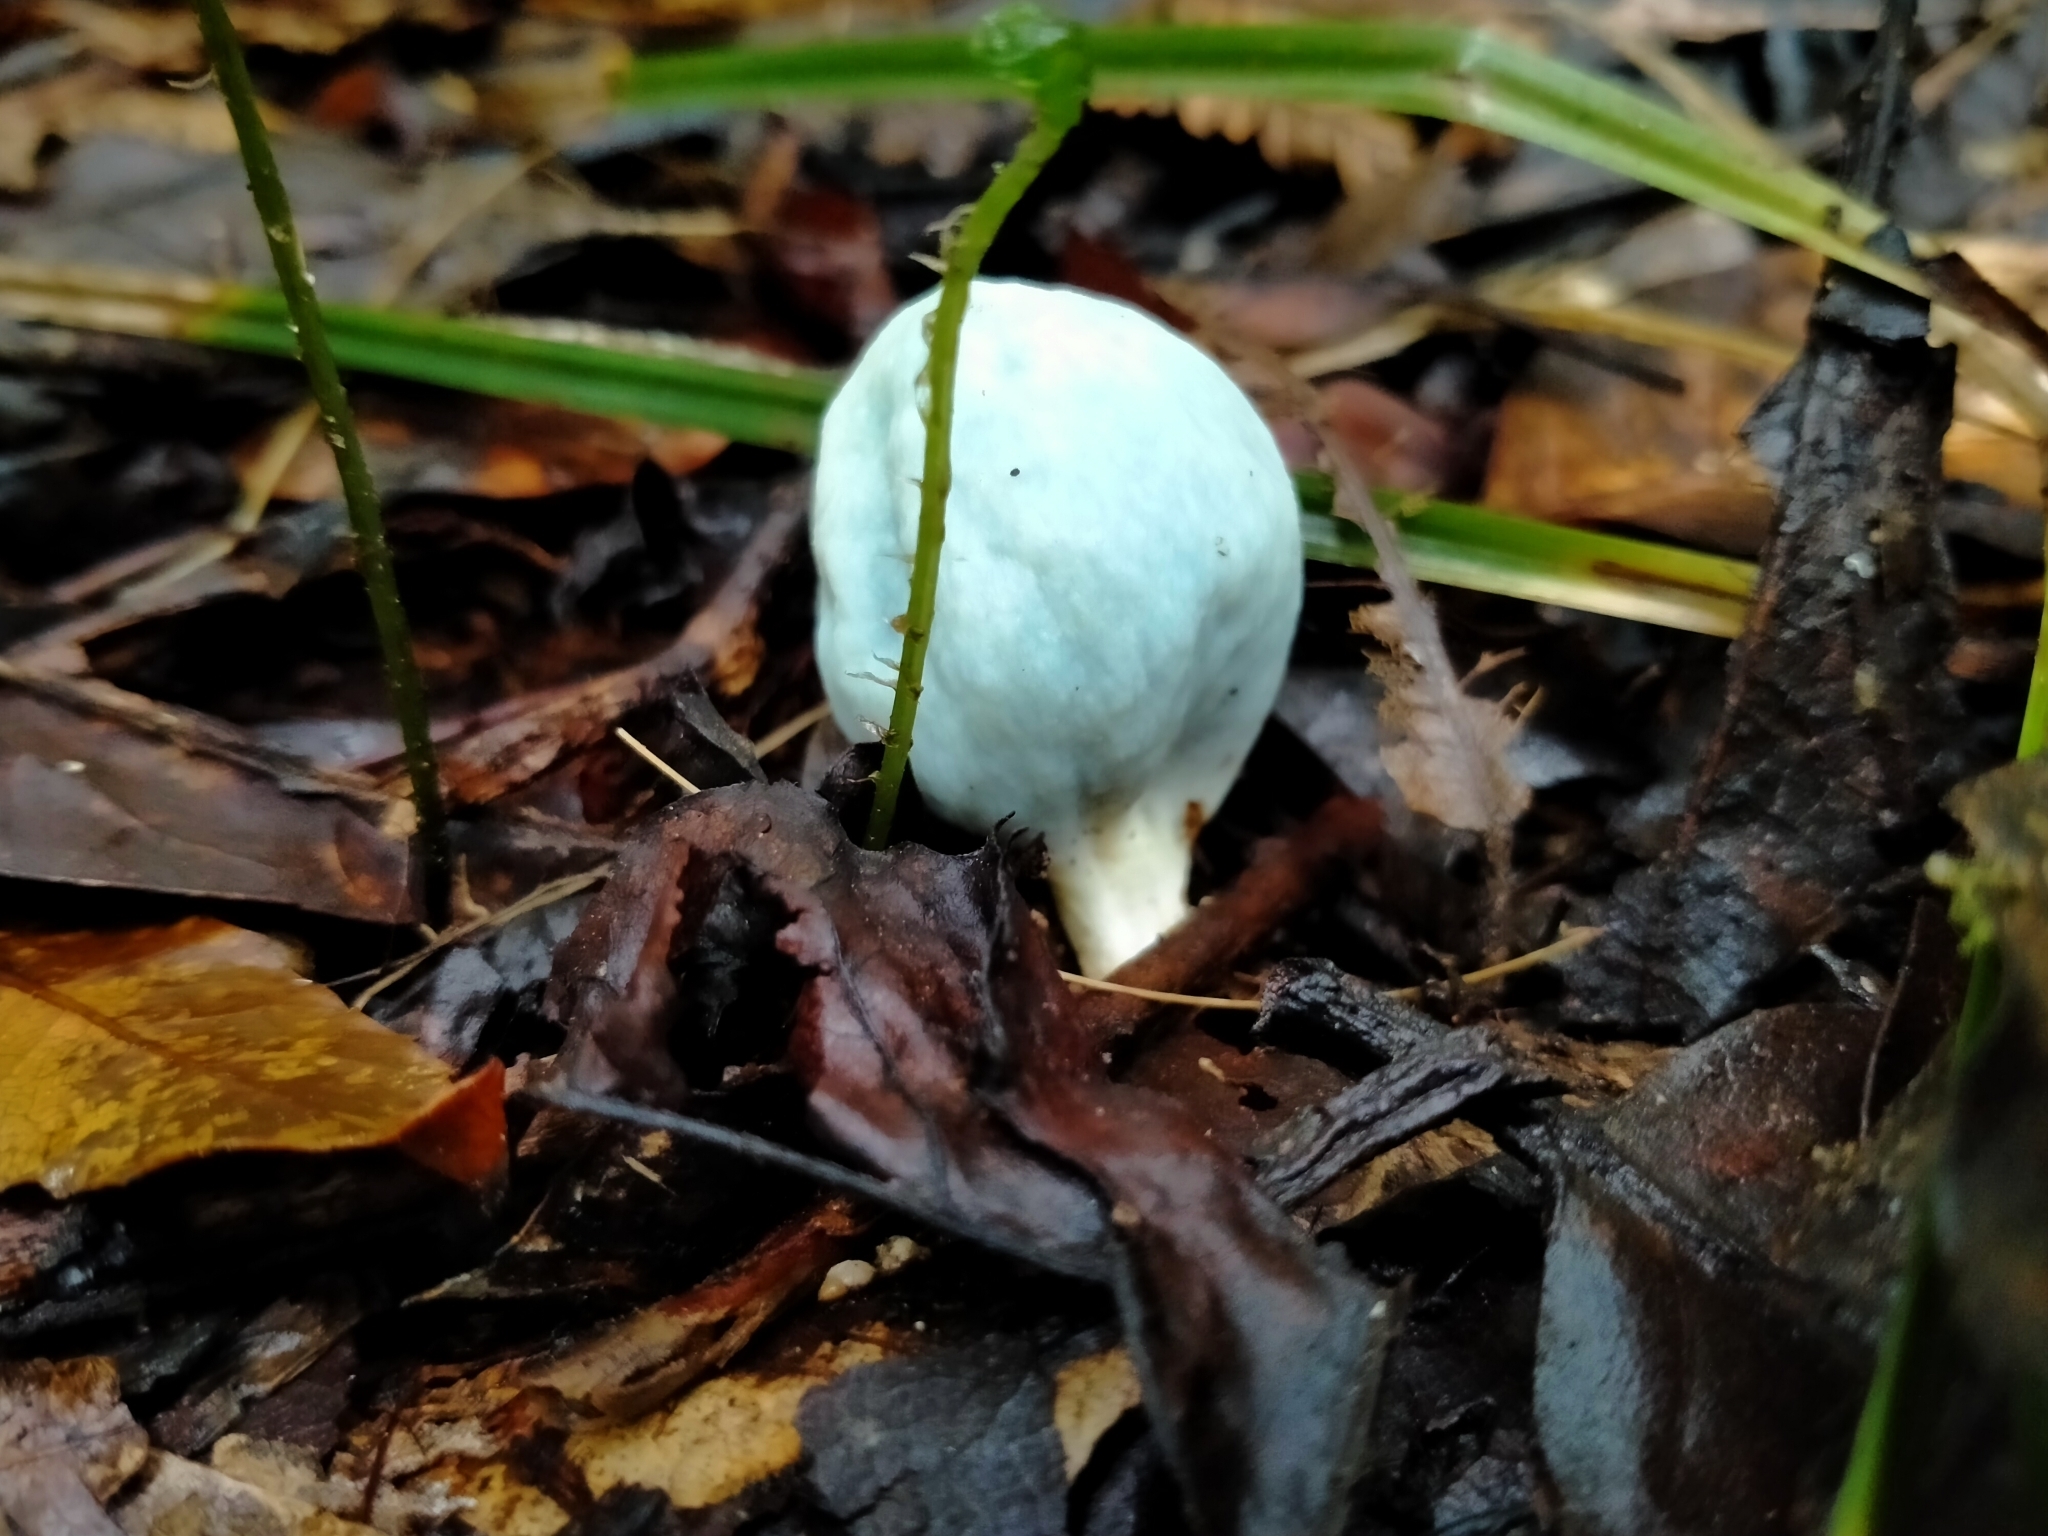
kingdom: Fungi
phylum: Basidiomycota
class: Agaricomycetes
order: Agaricales
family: Agaricaceae
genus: Clavogaster
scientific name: Clavogaster virescens
